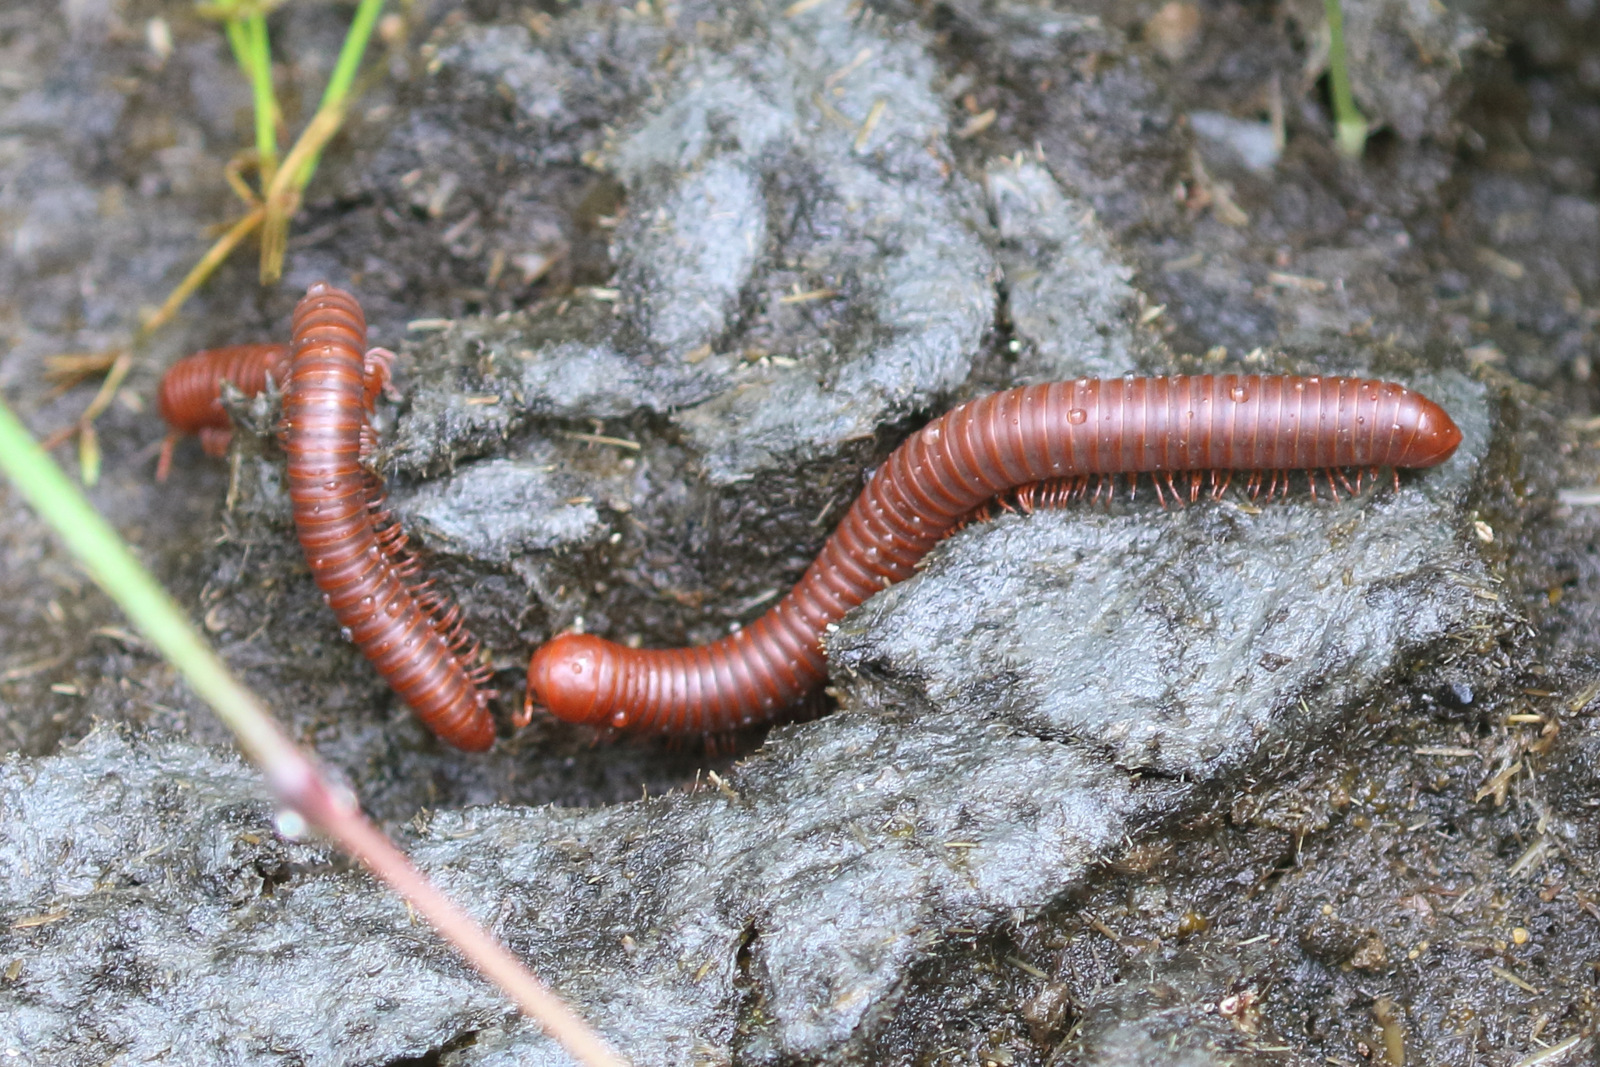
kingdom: Animalia
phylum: Arthropoda
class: Diplopoda
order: Spirobolida
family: Pachybolidae
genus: Trigoniulus
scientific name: Trigoniulus corallinus
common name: Millipede
